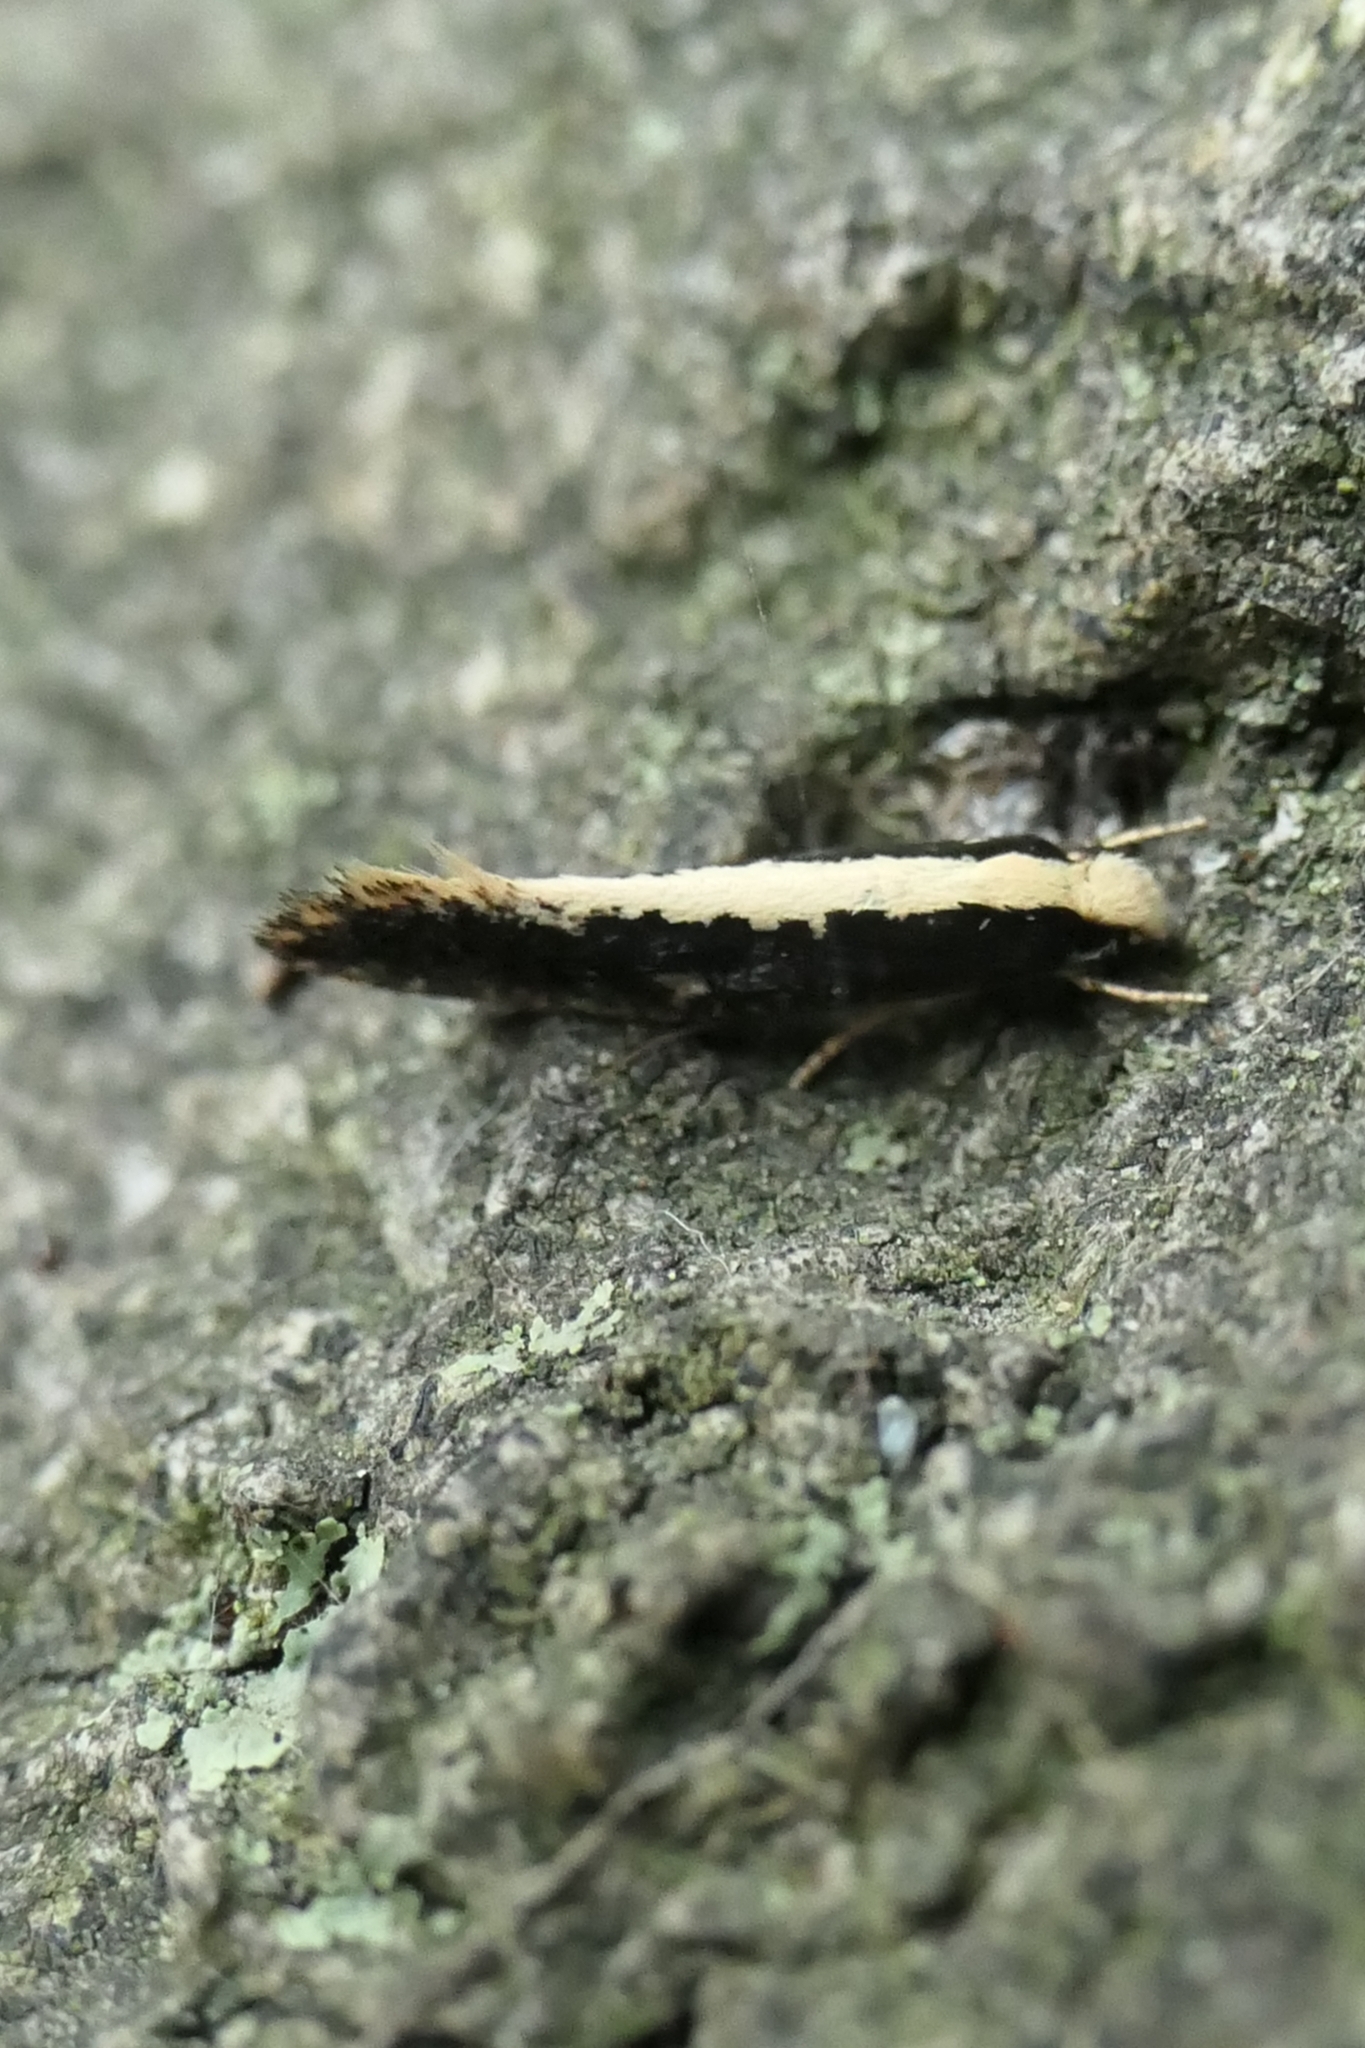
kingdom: Animalia
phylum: Arthropoda
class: Insecta
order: Lepidoptera
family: Tineidae
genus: Monopis
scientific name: Monopis ethelella
